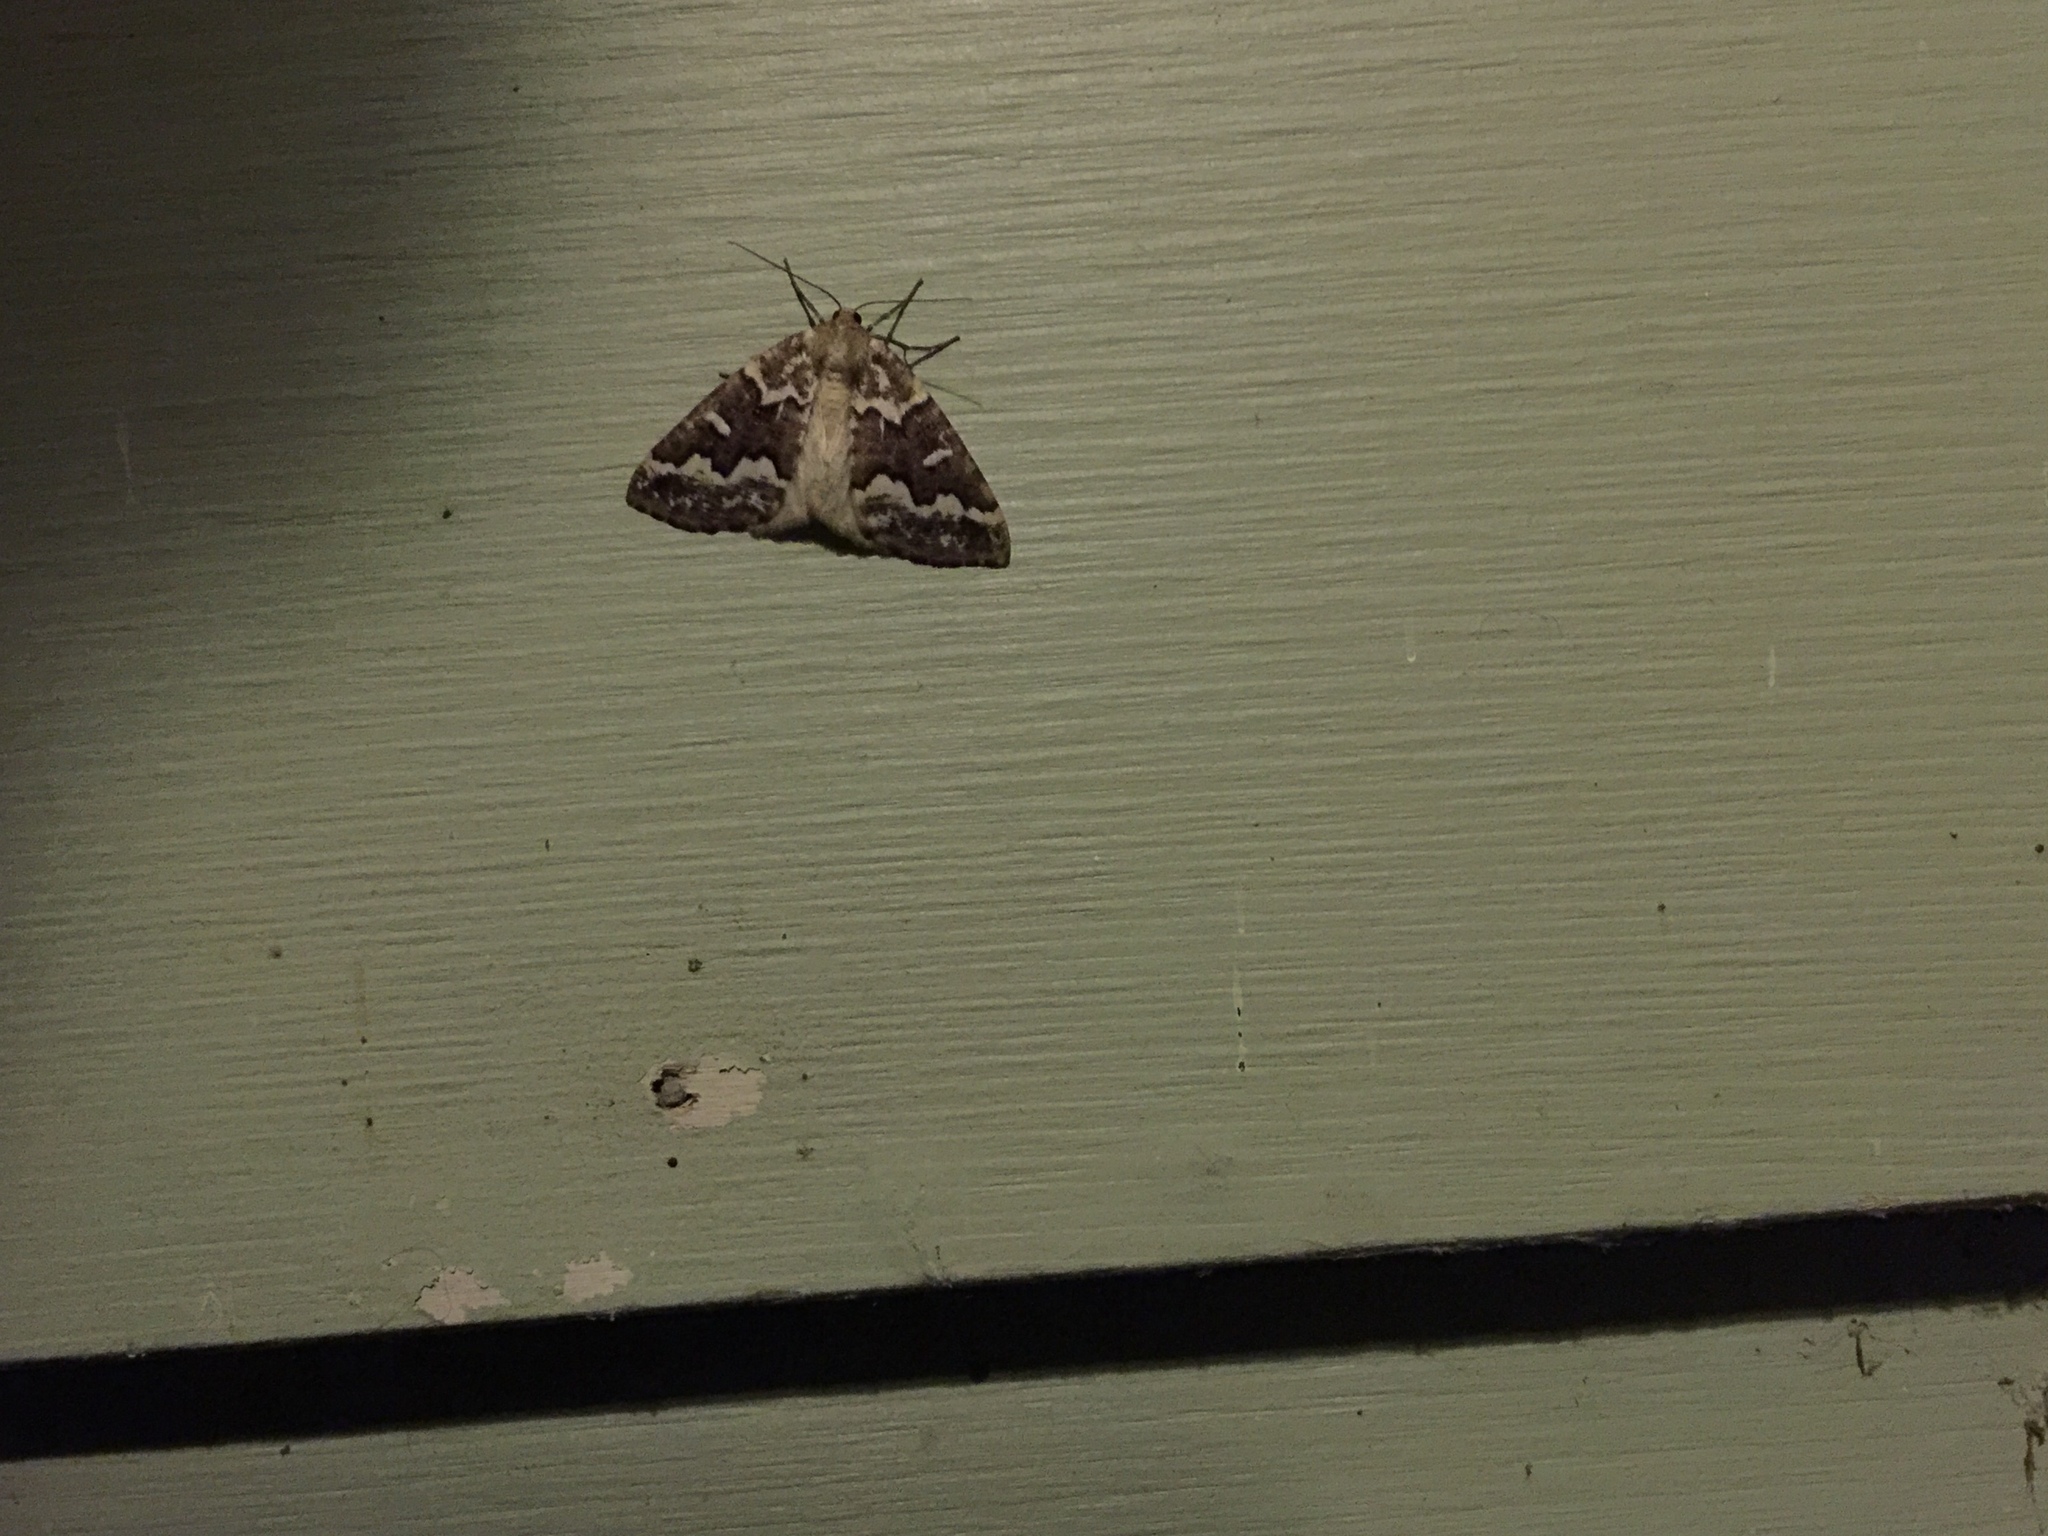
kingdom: Animalia
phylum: Arthropoda
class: Insecta
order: Lepidoptera
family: Geometridae
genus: Caripeta
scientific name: Caripeta divisata
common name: Gray spruce looper
